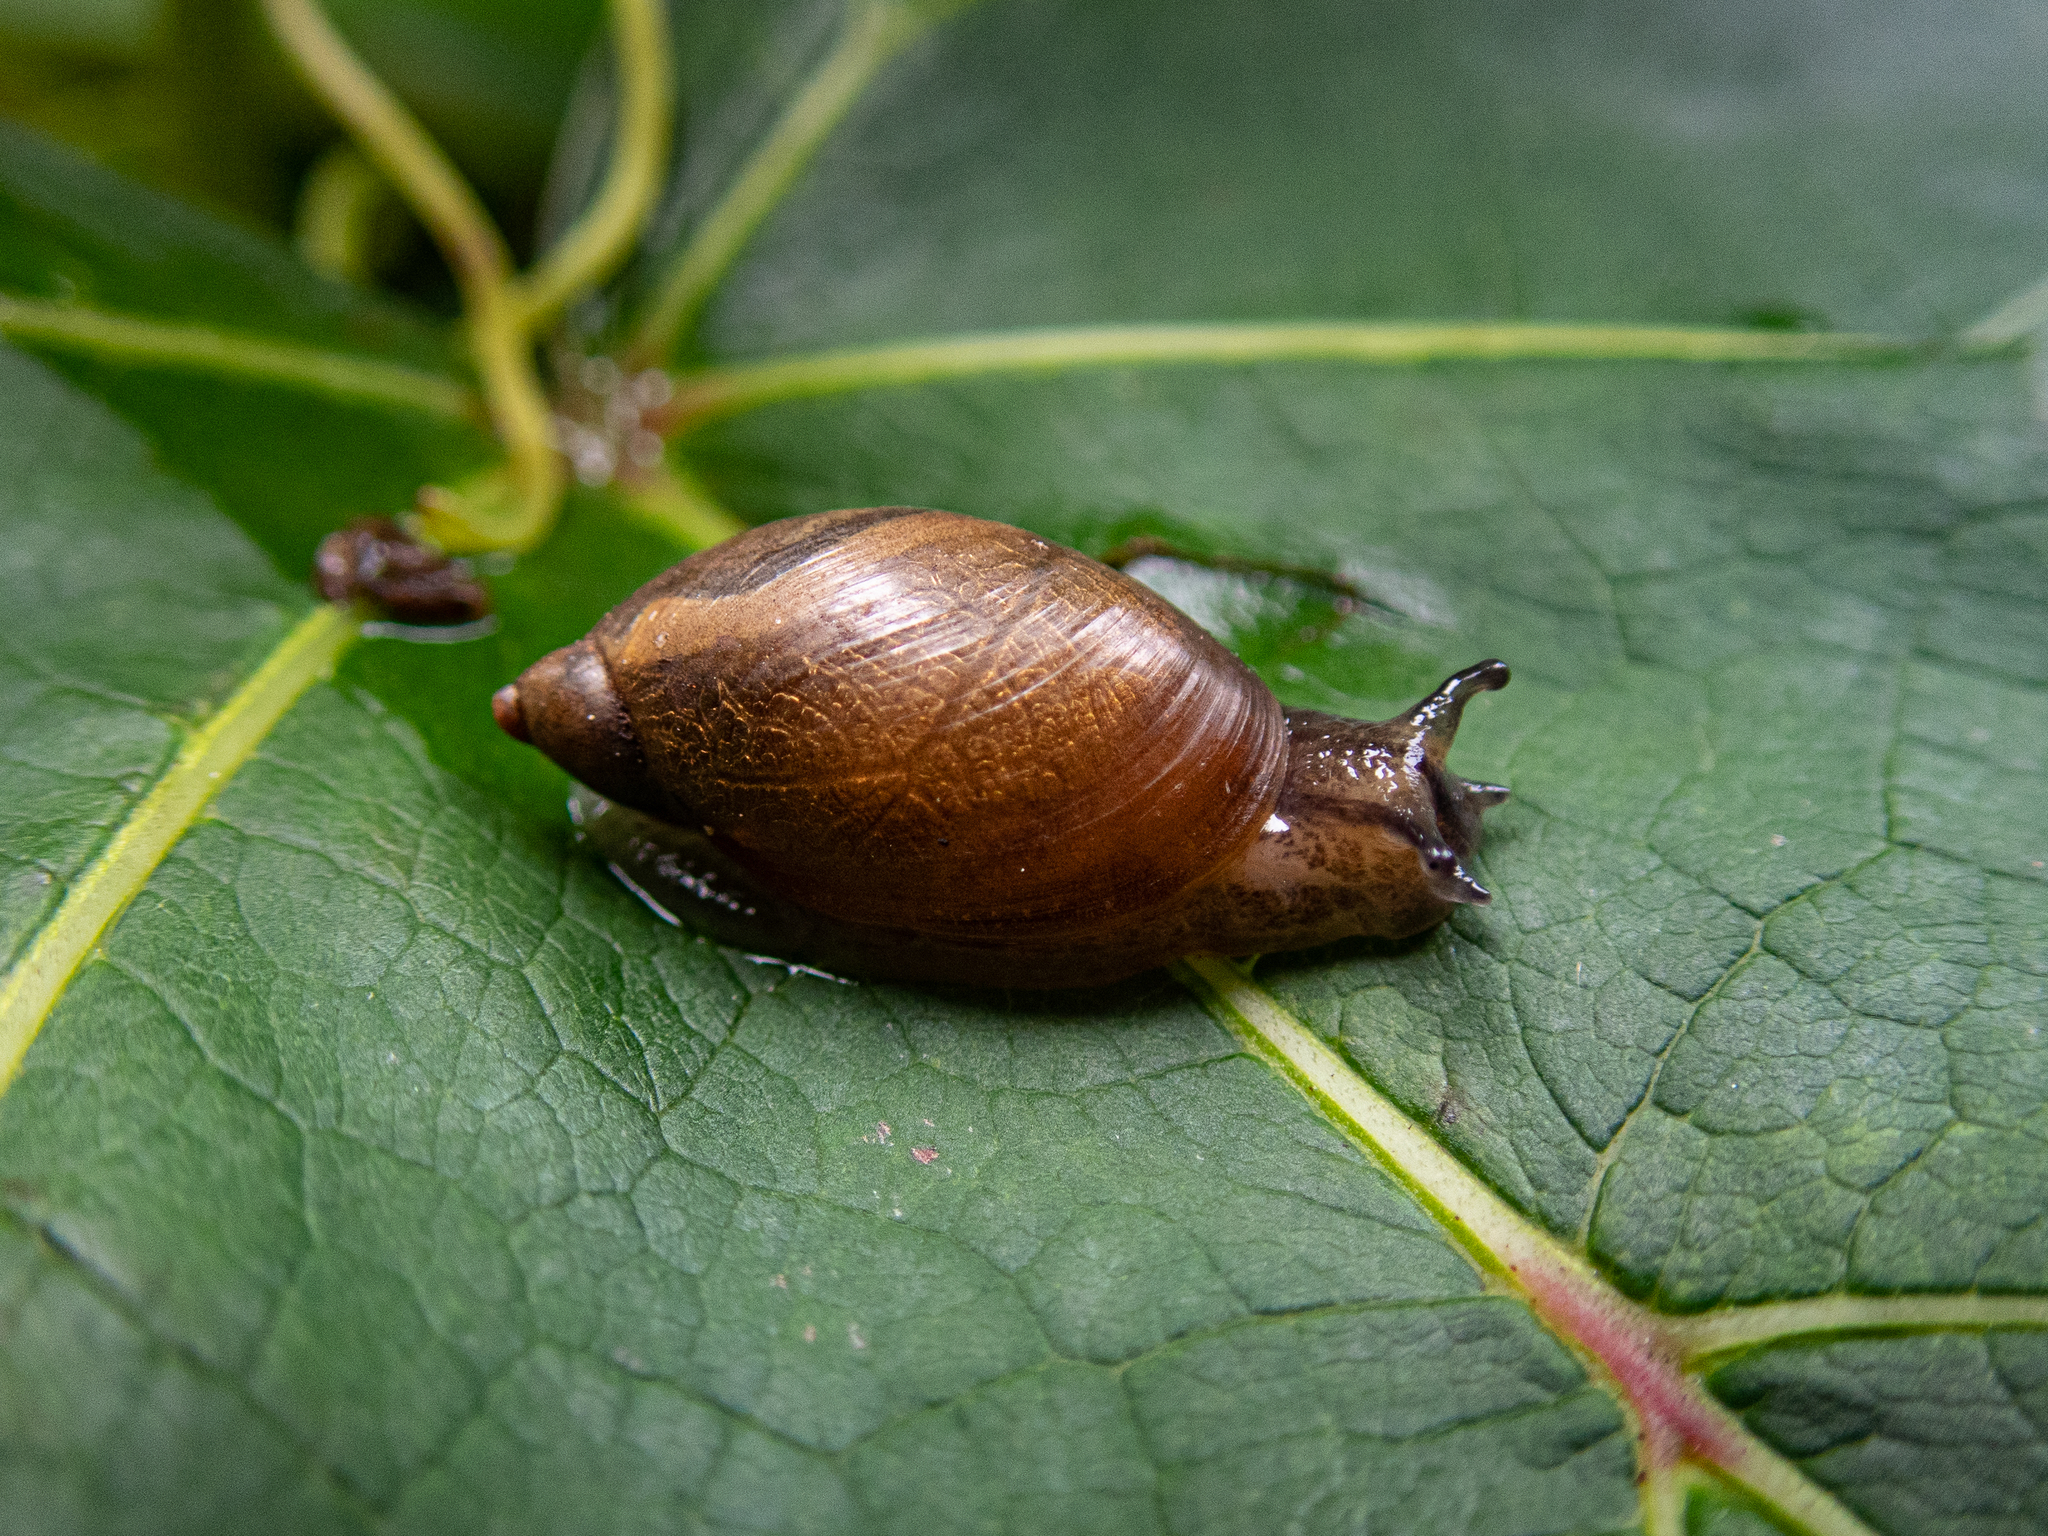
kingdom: Animalia
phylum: Mollusca
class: Gastropoda
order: Stylommatophora
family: Succineidae
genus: Oxyloma
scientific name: Oxyloma retusum
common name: Blunt ambersnail
